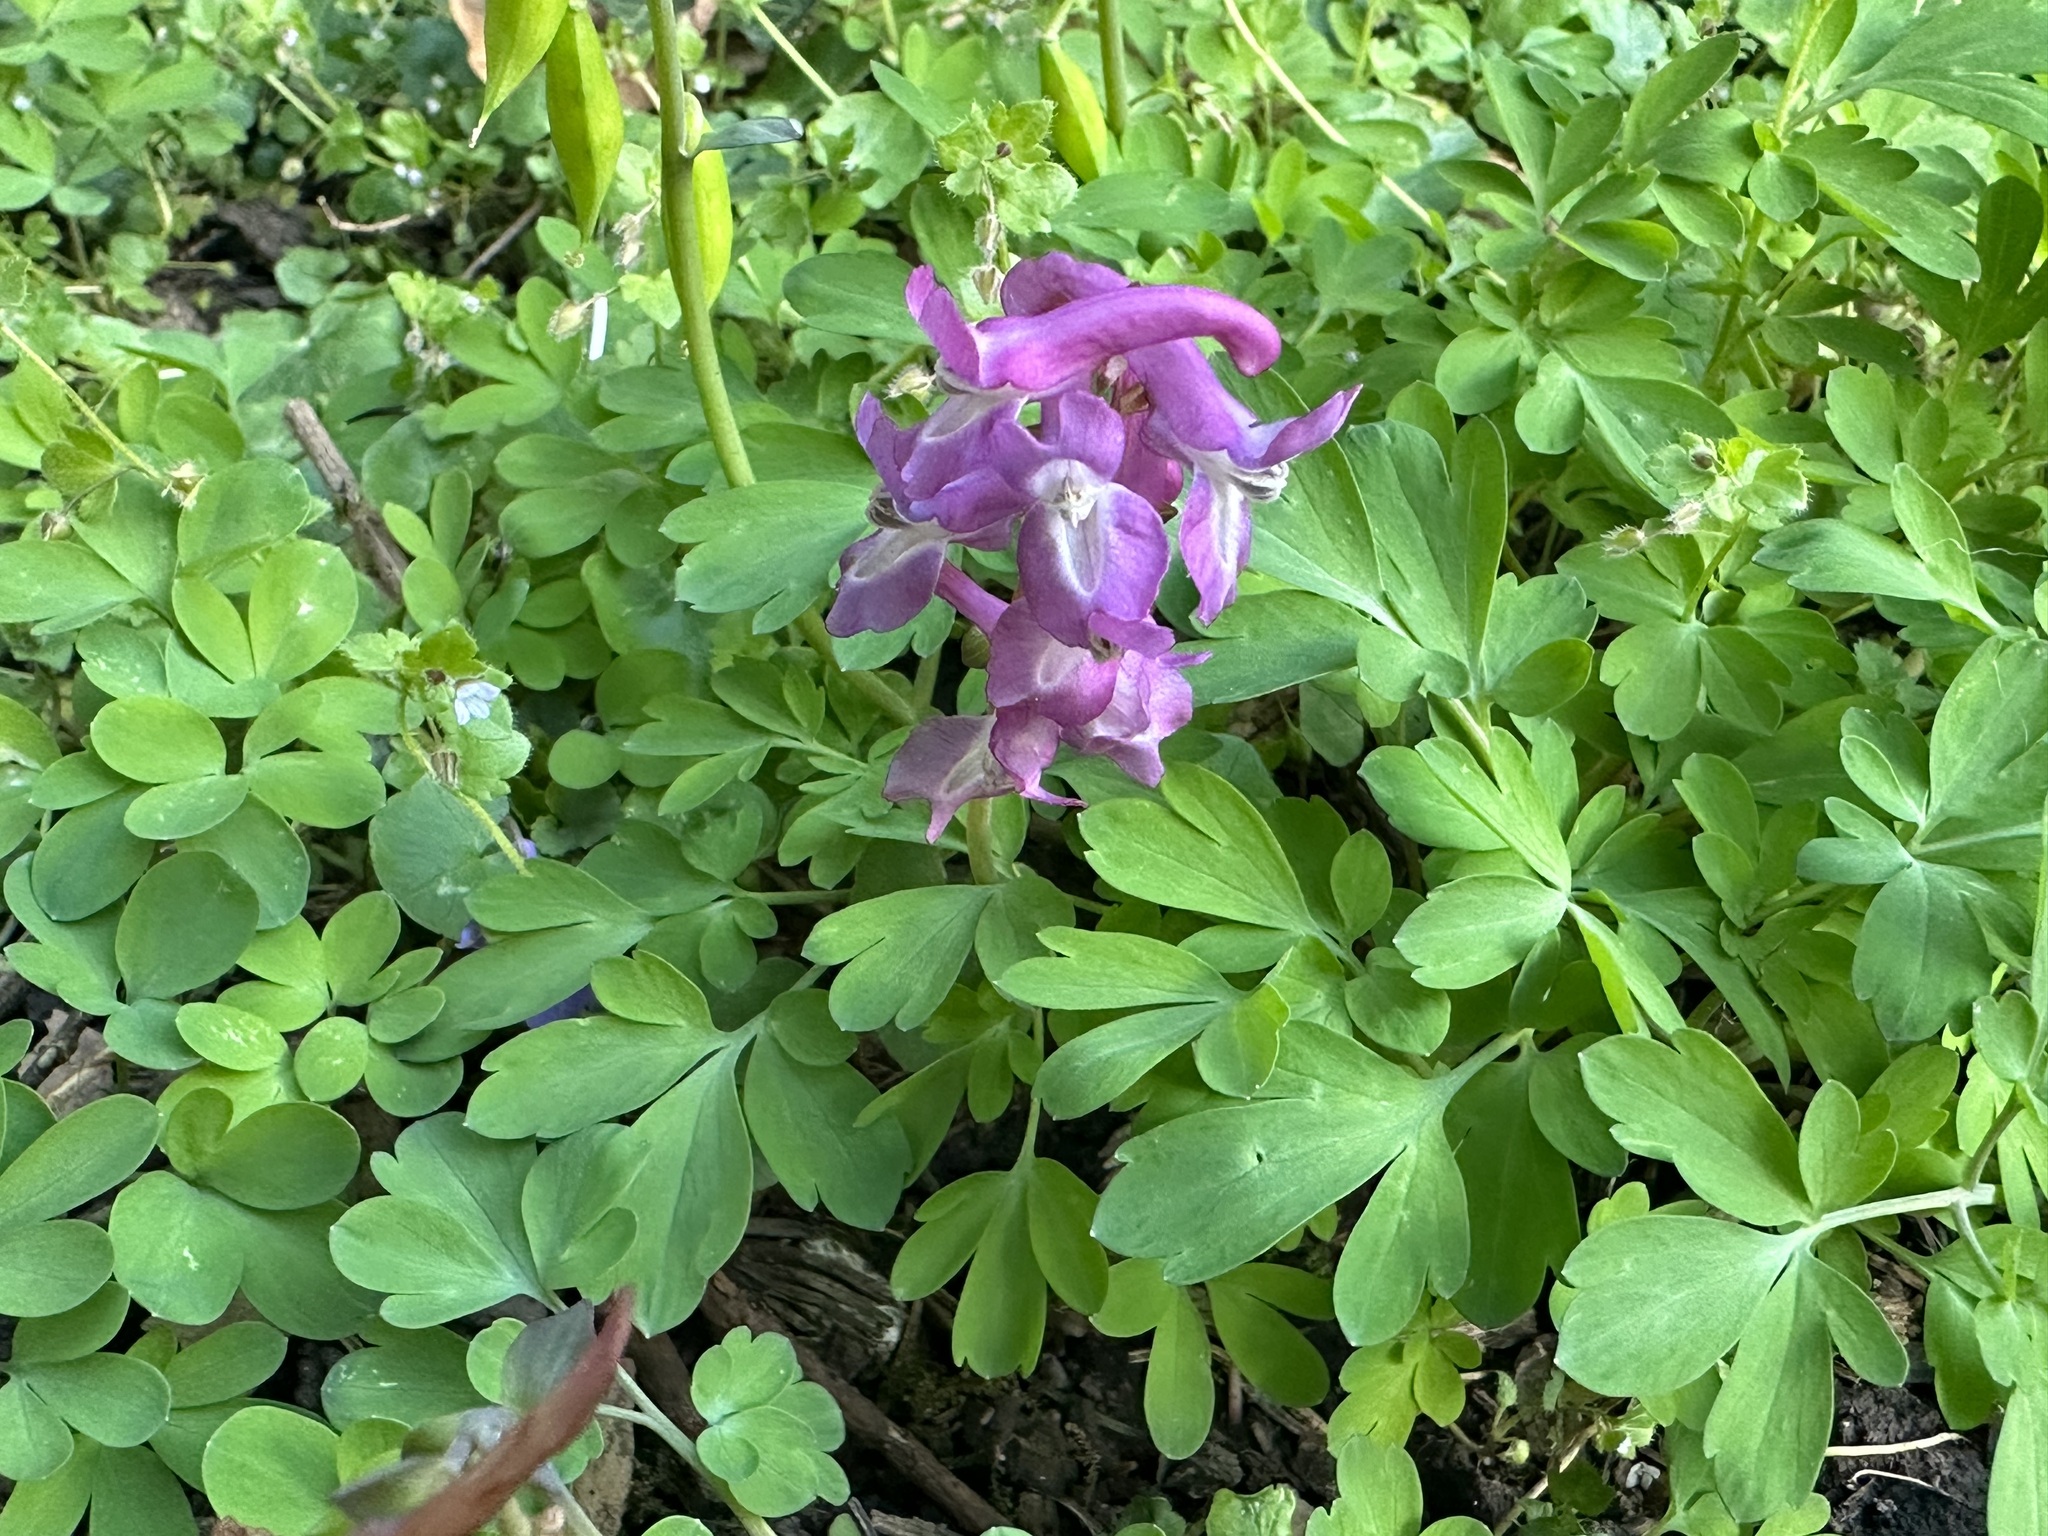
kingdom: Plantae
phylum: Tracheophyta
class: Magnoliopsida
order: Ranunculales
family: Papaveraceae
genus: Corydalis
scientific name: Corydalis cava
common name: Hollowroot
